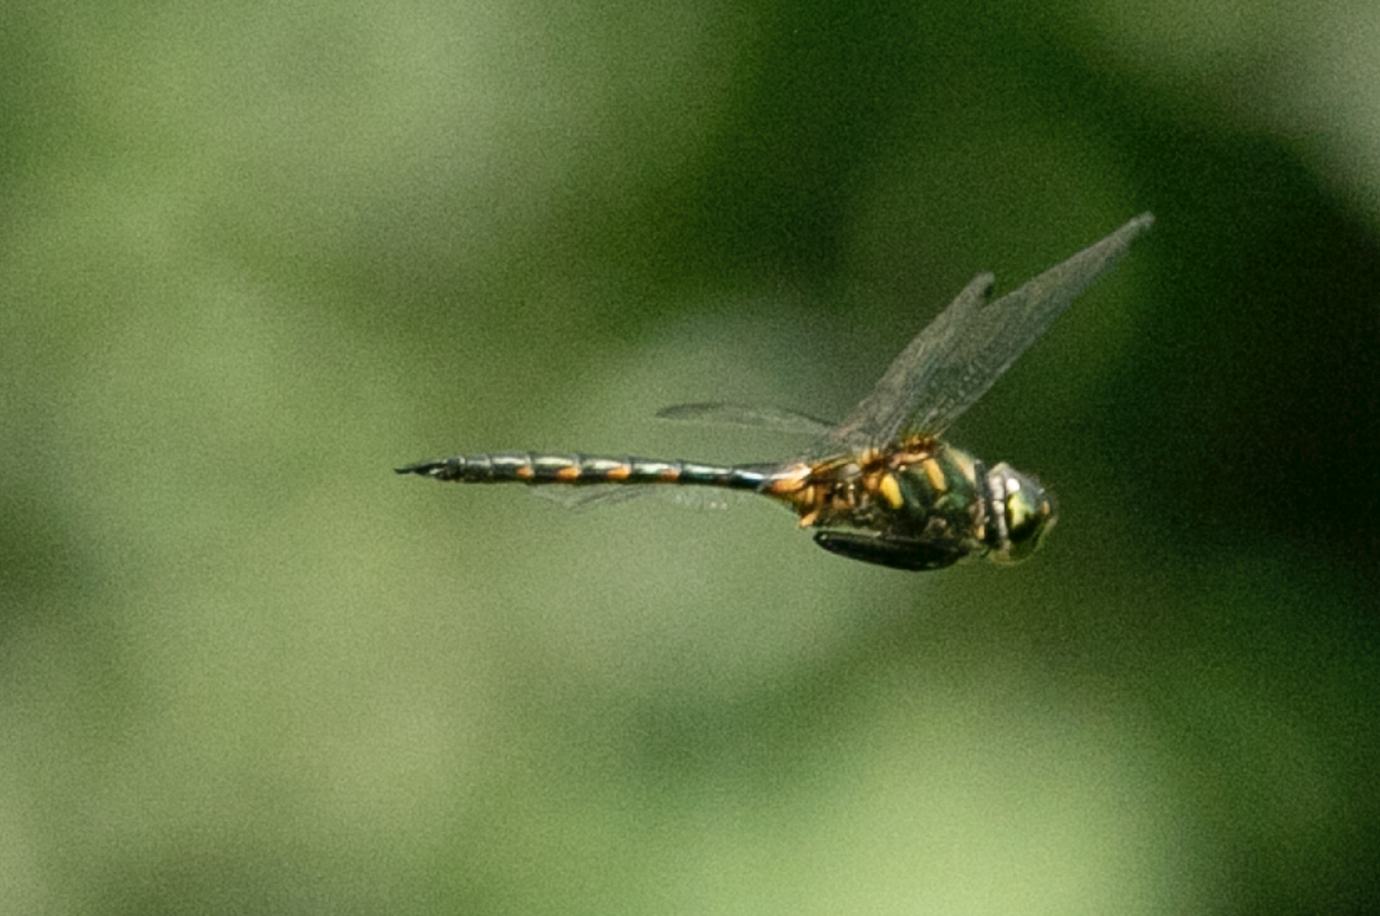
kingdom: Animalia
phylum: Arthropoda
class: Insecta
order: Odonata
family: Corduliidae
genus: Somatochlora
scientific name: Somatochlora flavomaculata
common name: Yellow-spotted emerald
